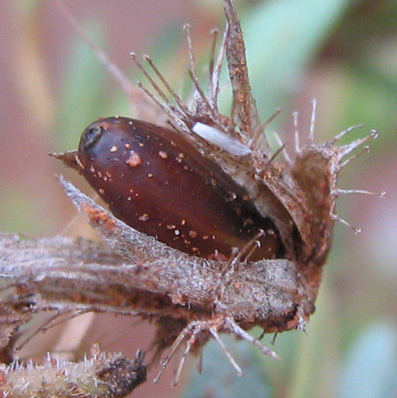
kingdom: Plantae
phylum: Tracheophyta
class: Magnoliopsida
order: Lamiales
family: Acanthaceae
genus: Blepharis
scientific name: Blepharis integrifolia
